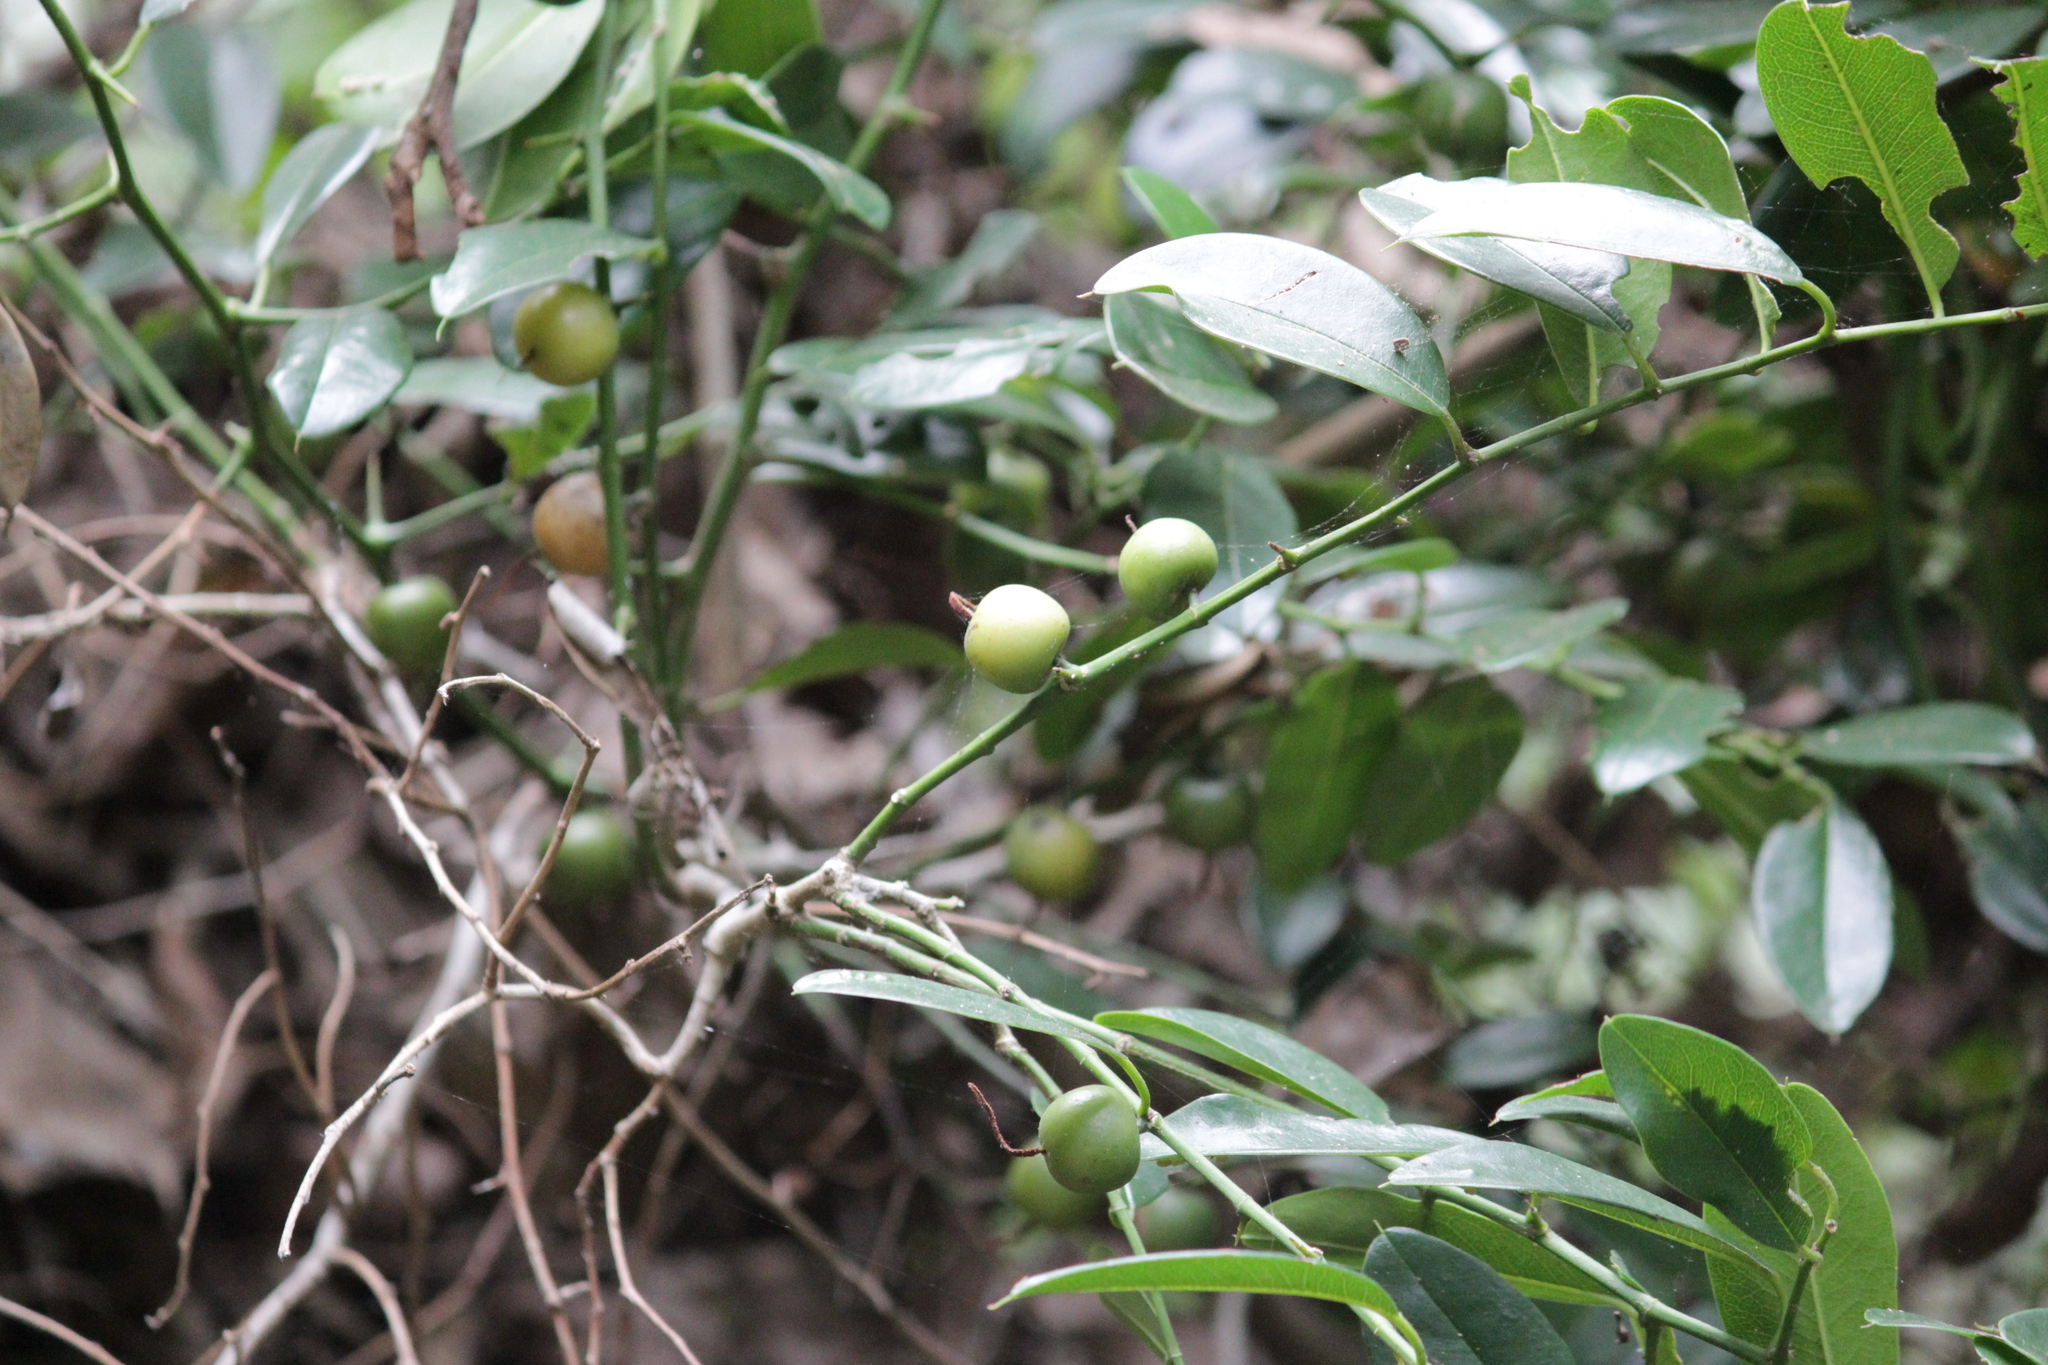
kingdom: Plantae
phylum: Tracheophyta
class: Magnoliopsida
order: Rosales
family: Cannabaceae
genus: Chaetachme
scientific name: Chaetachme aristata
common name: Thorny elm
